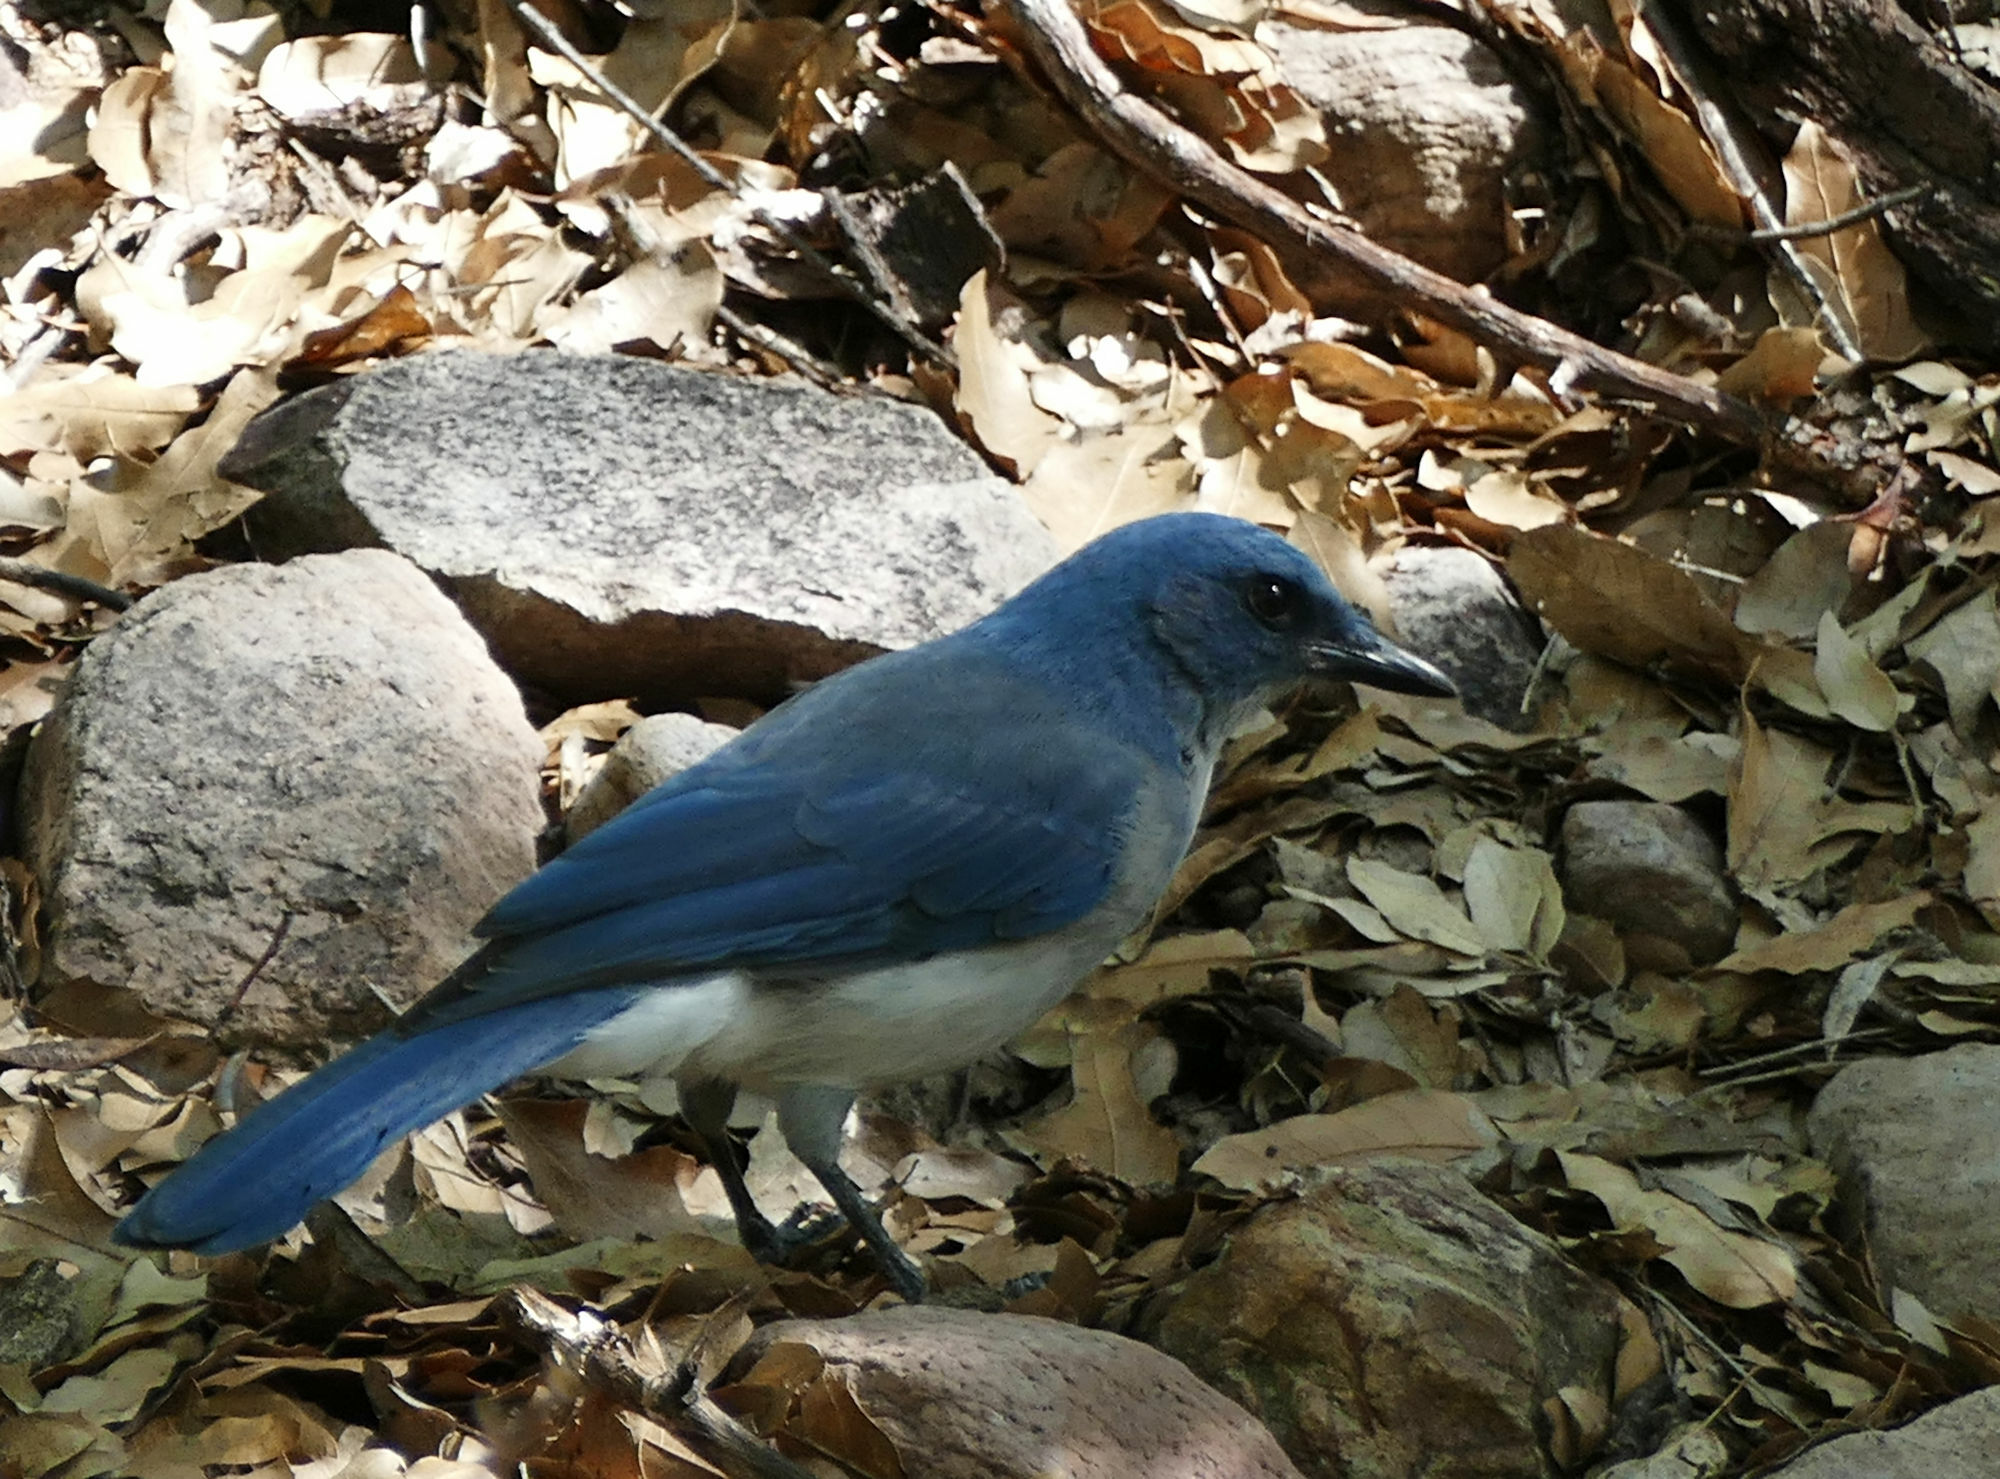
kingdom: Animalia
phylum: Chordata
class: Aves
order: Passeriformes
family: Corvidae
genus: Aphelocoma
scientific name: Aphelocoma wollweberi
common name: Mexican jay
